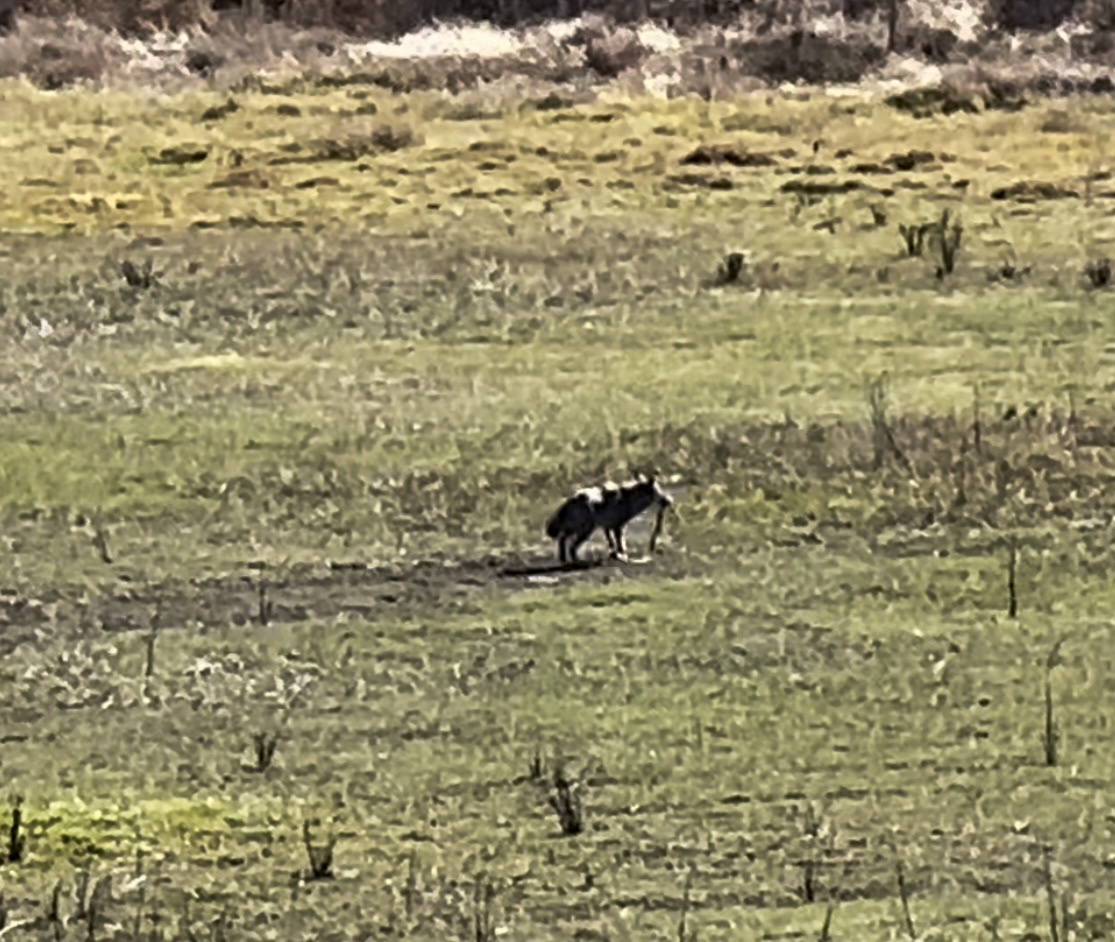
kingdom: Animalia
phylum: Chordata
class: Mammalia
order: Carnivora
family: Canidae
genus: Canis
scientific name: Canis latrans
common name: Coyote
